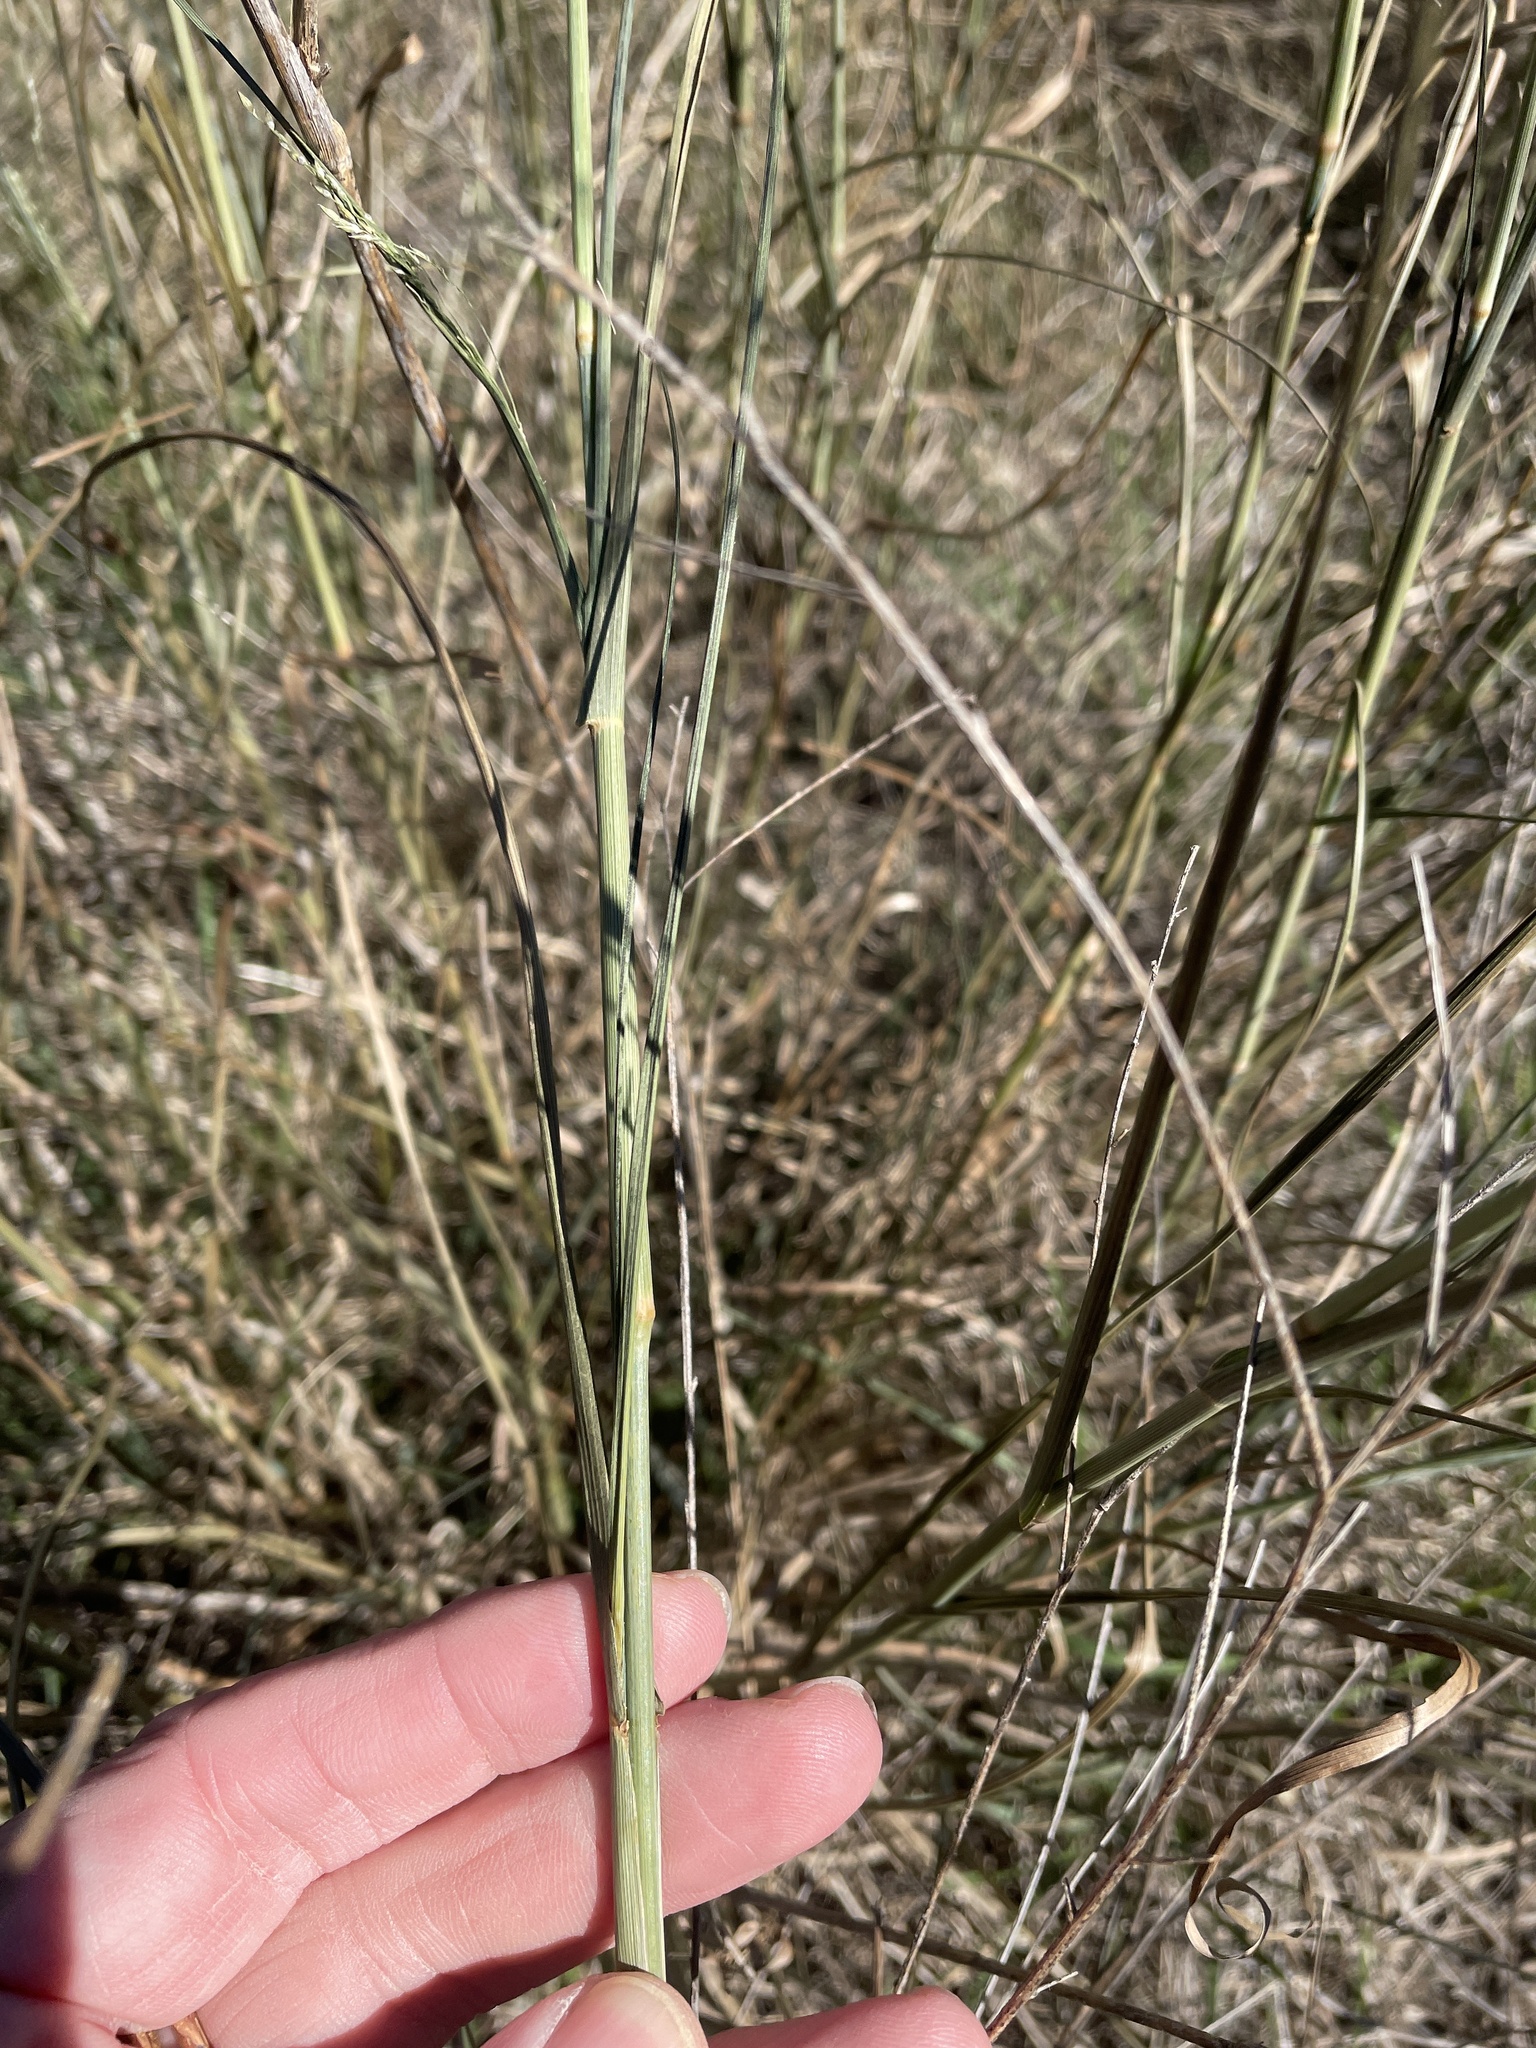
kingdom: Plantae
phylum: Tracheophyta
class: Liliopsida
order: Poales
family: Poaceae
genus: Panicum
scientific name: Panicum coloratum
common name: Kleingrass
